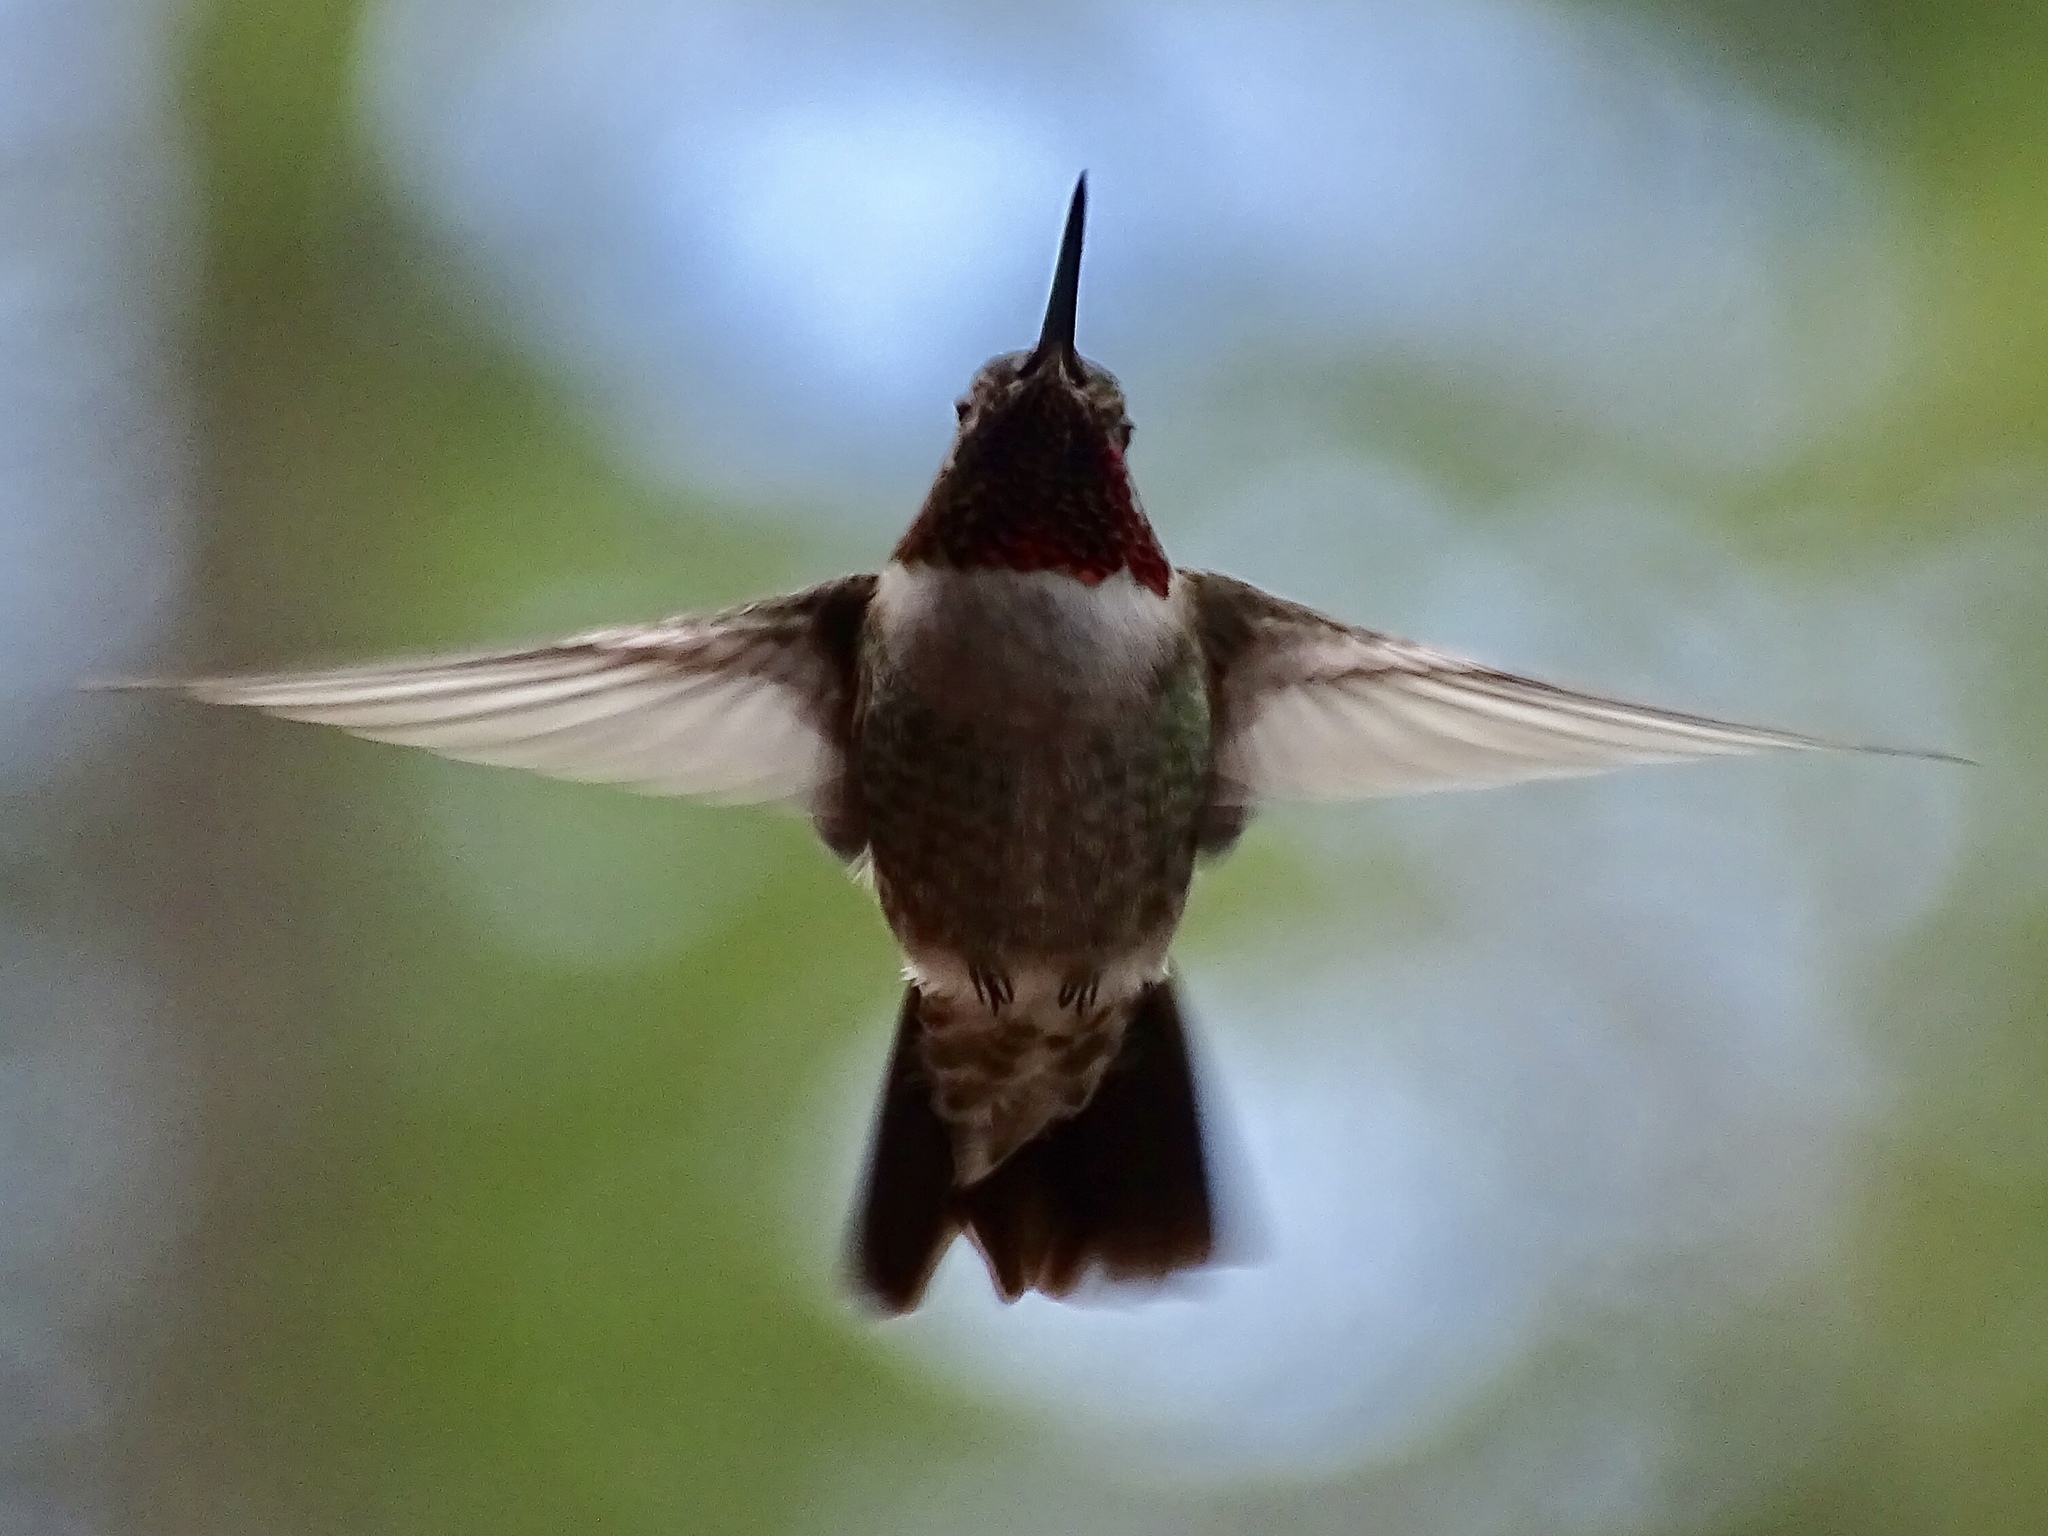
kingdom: Animalia
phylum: Chordata
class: Aves
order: Apodiformes
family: Trochilidae
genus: Selasphorus
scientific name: Selasphorus platycercus
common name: Broad-tailed hummingbird
